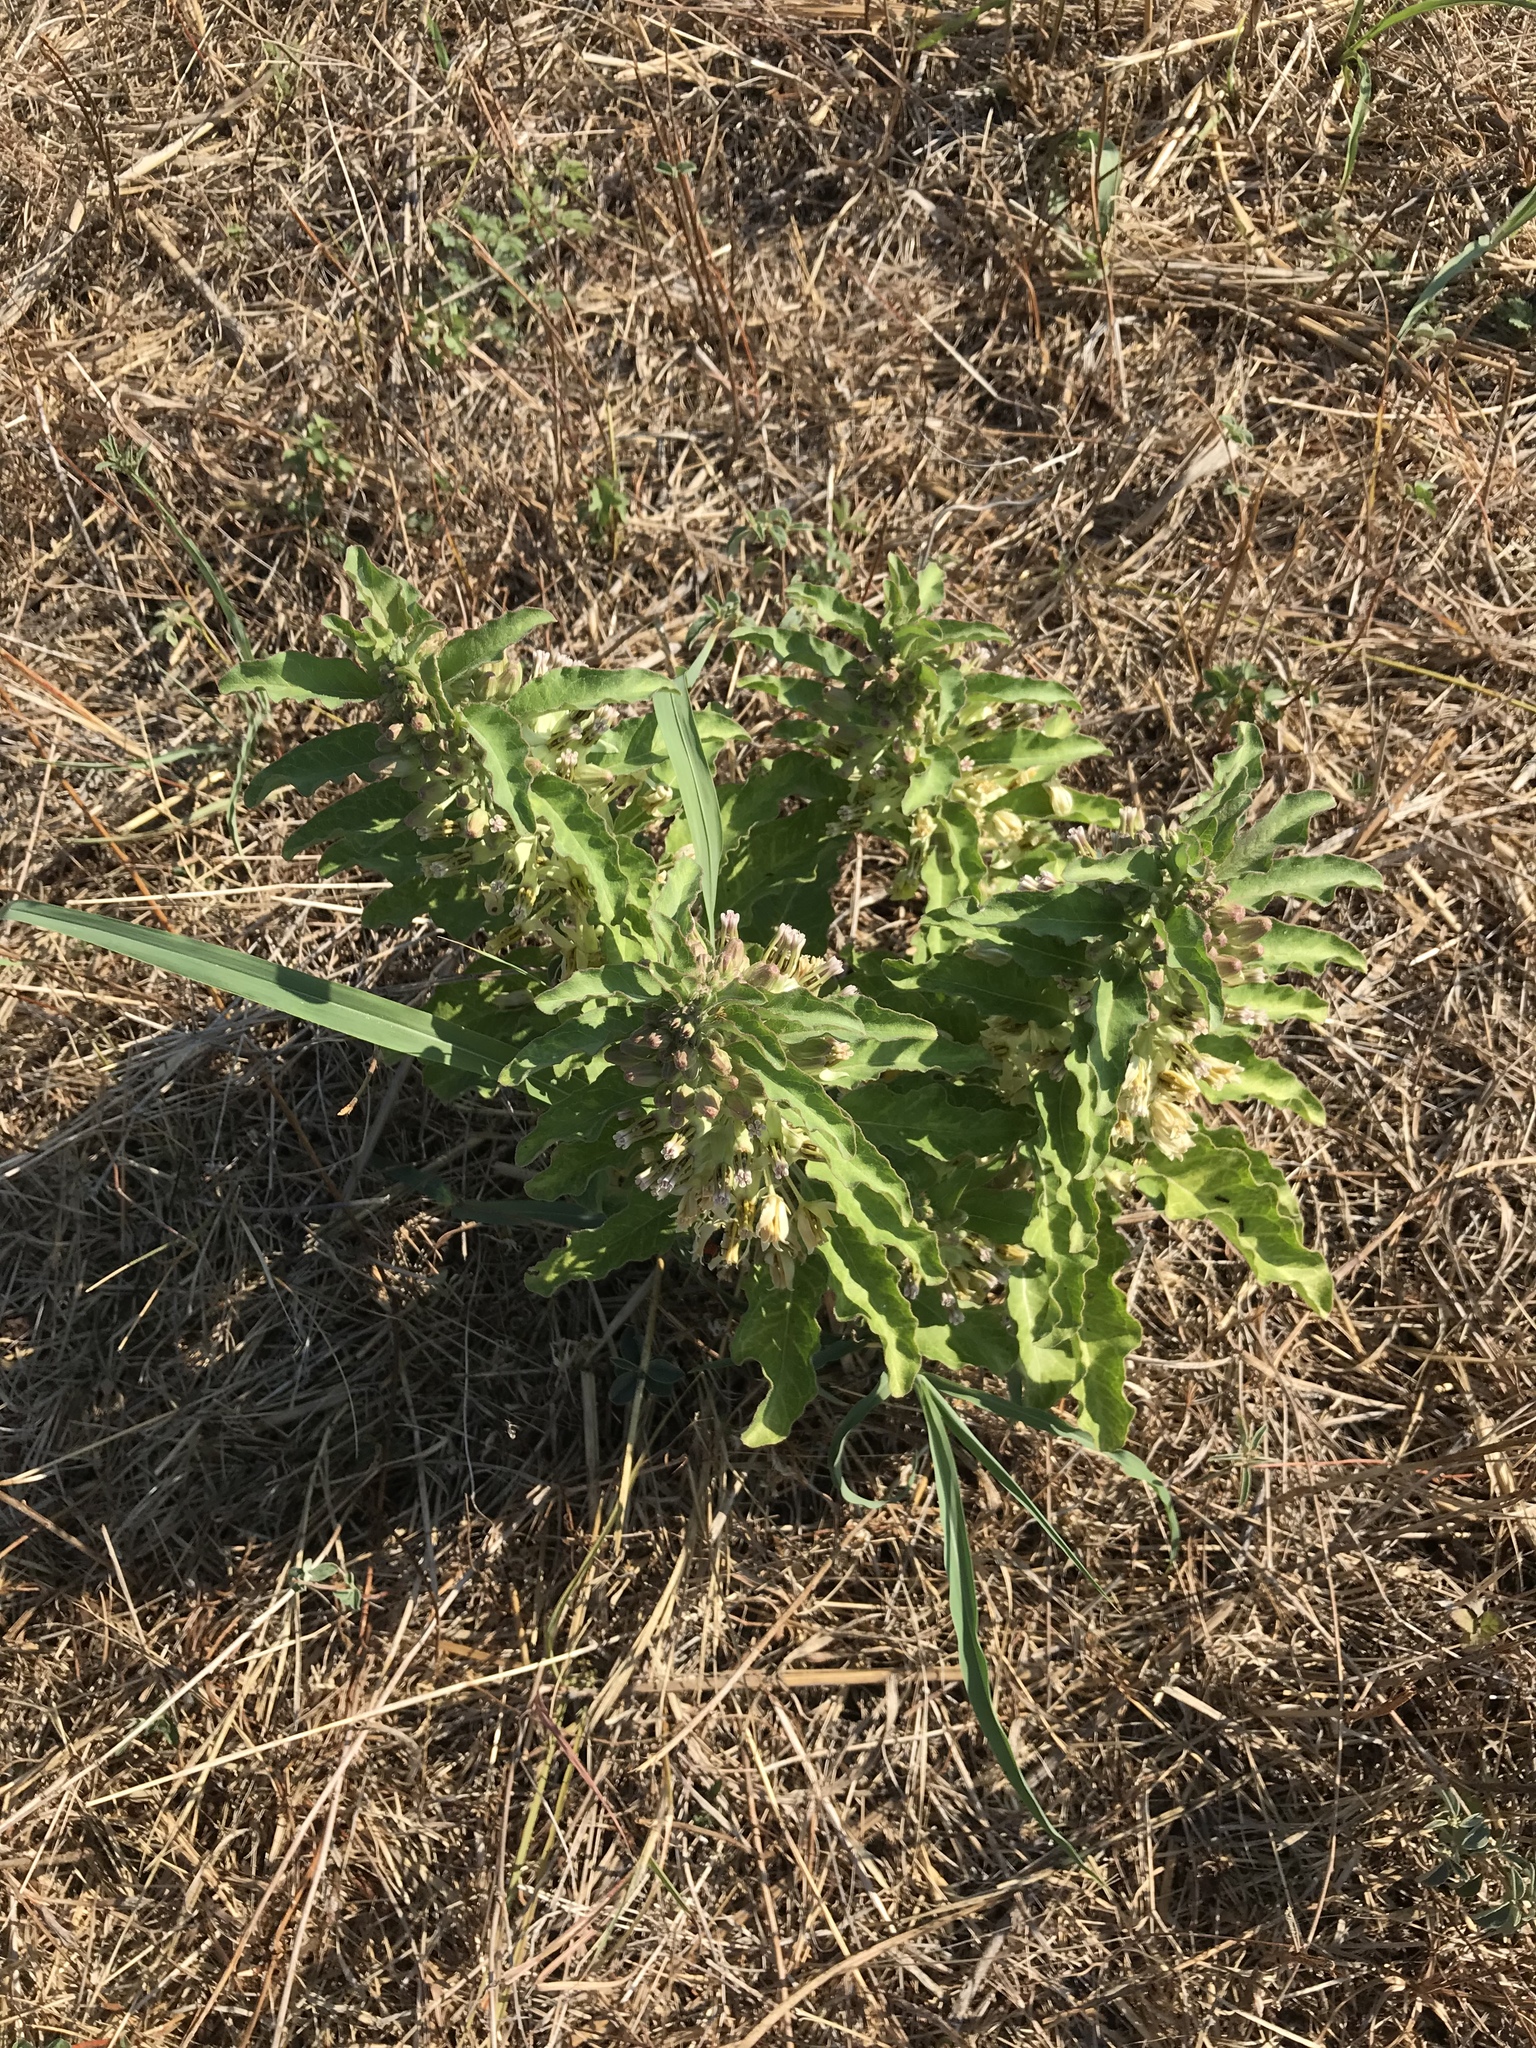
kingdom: Plantae
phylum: Tracheophyta
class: Magnoliopsida
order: Gentianales
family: Apocynaceae
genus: Asclepias
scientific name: Asclepias oenotheroides
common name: Zizotes milkweed
